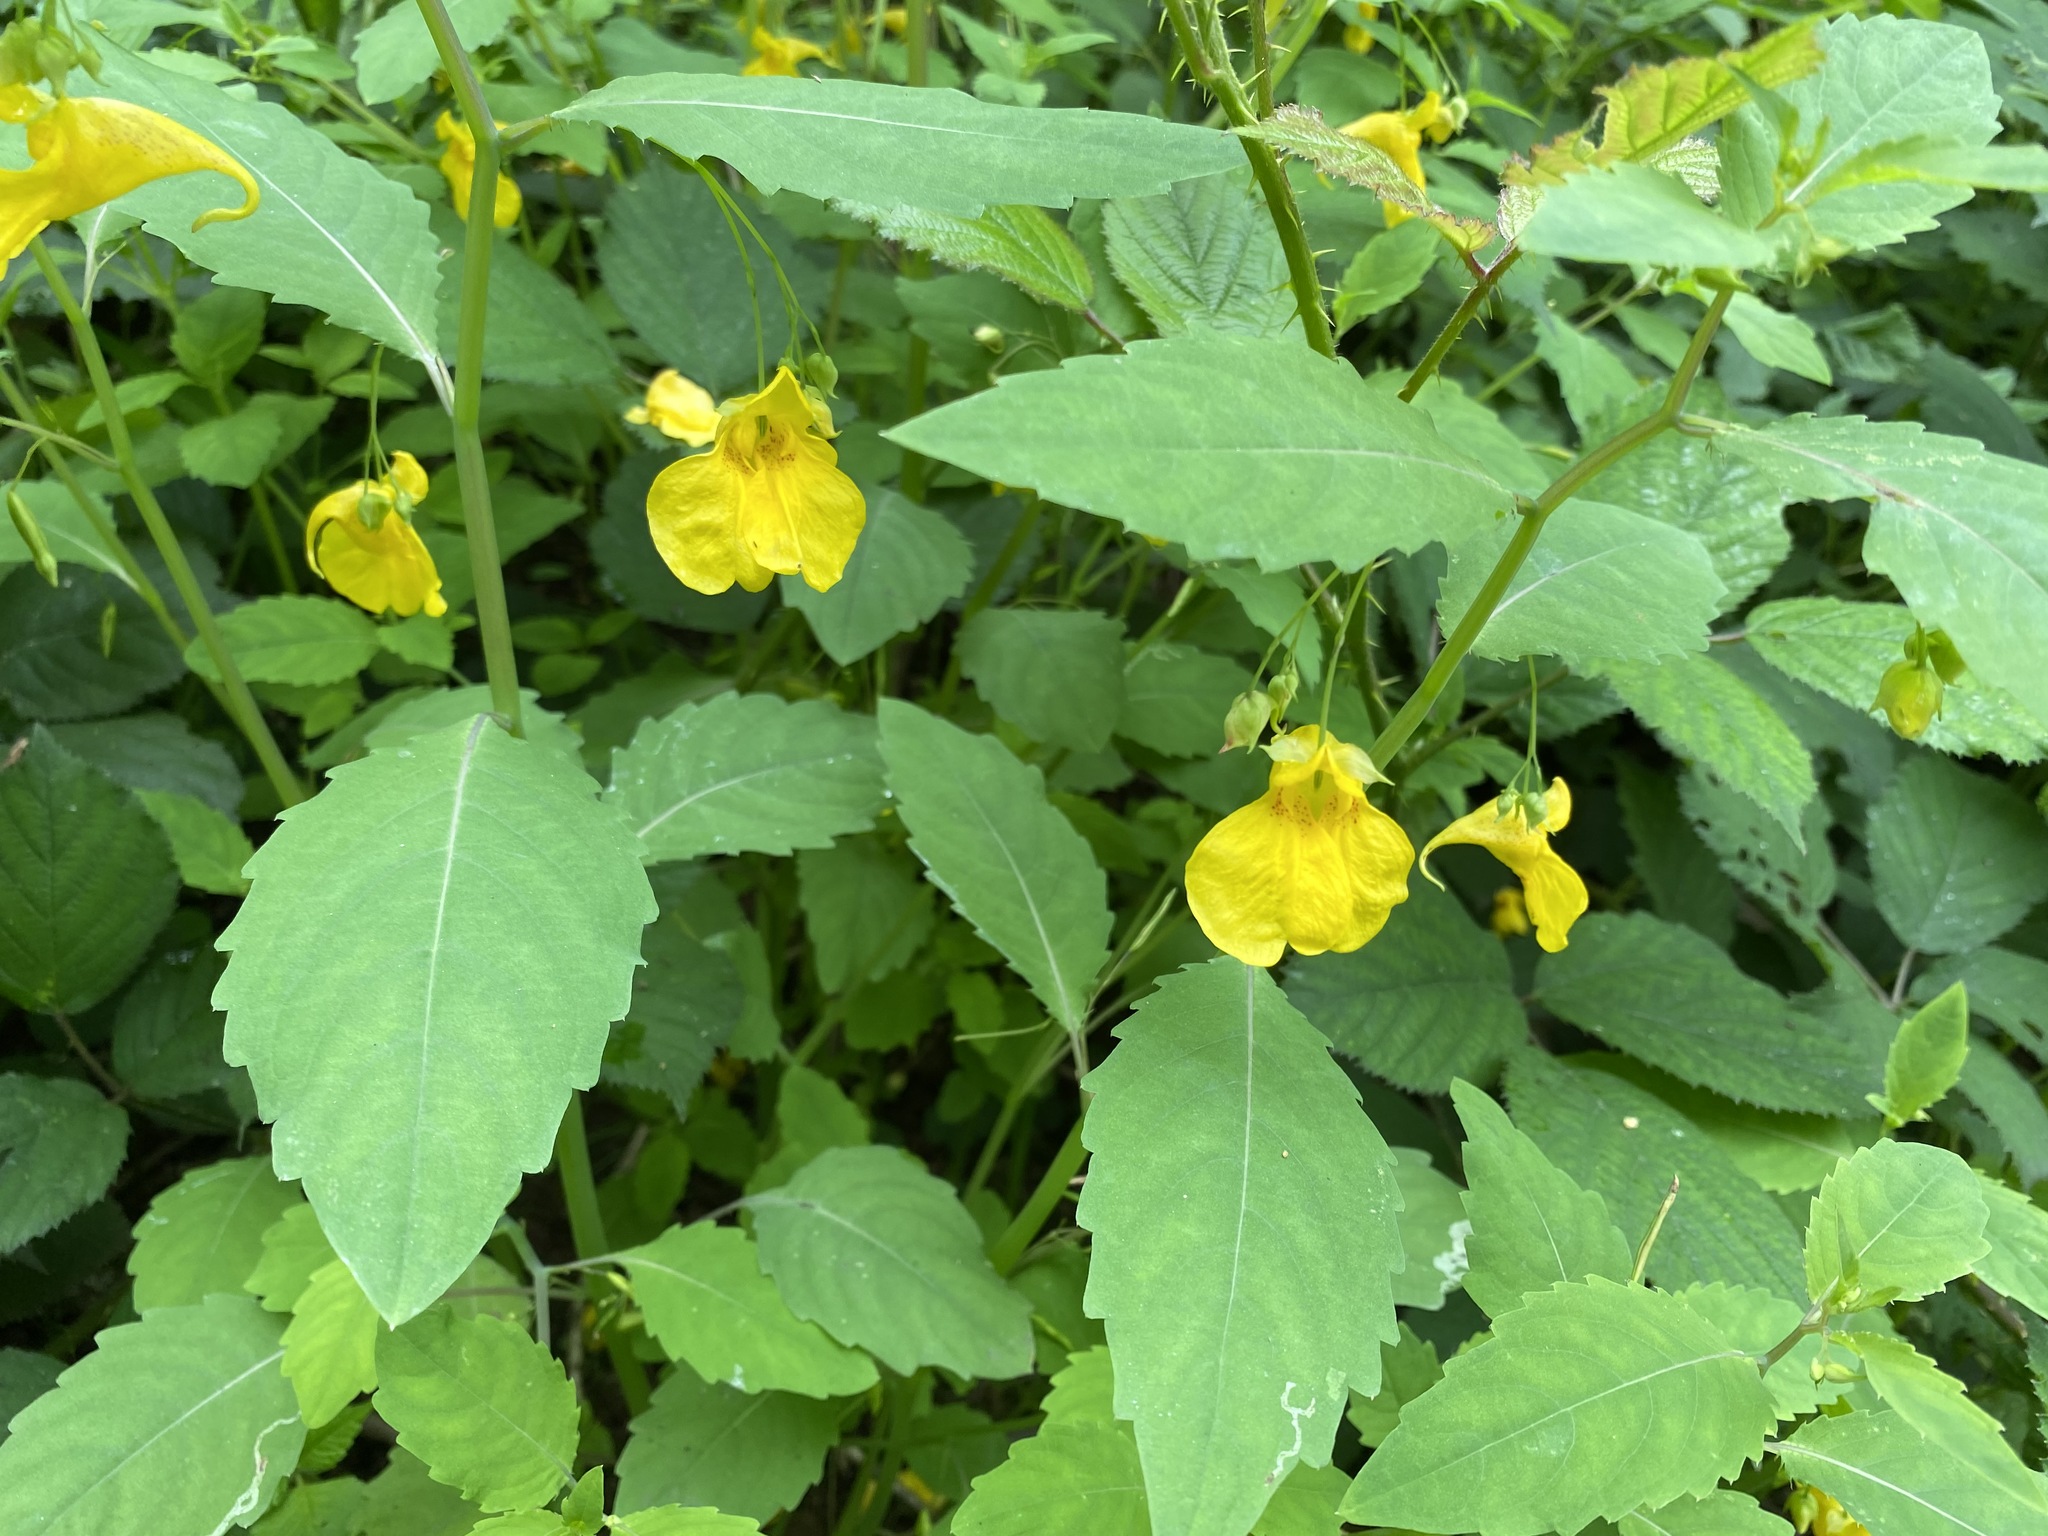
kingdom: Plantae
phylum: Tracheophyta
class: Magnoliopsida
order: Ericales
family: Balsaminaceae
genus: Impatiens
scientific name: Impatiens noli-tangere
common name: Touch-me-not balsam
